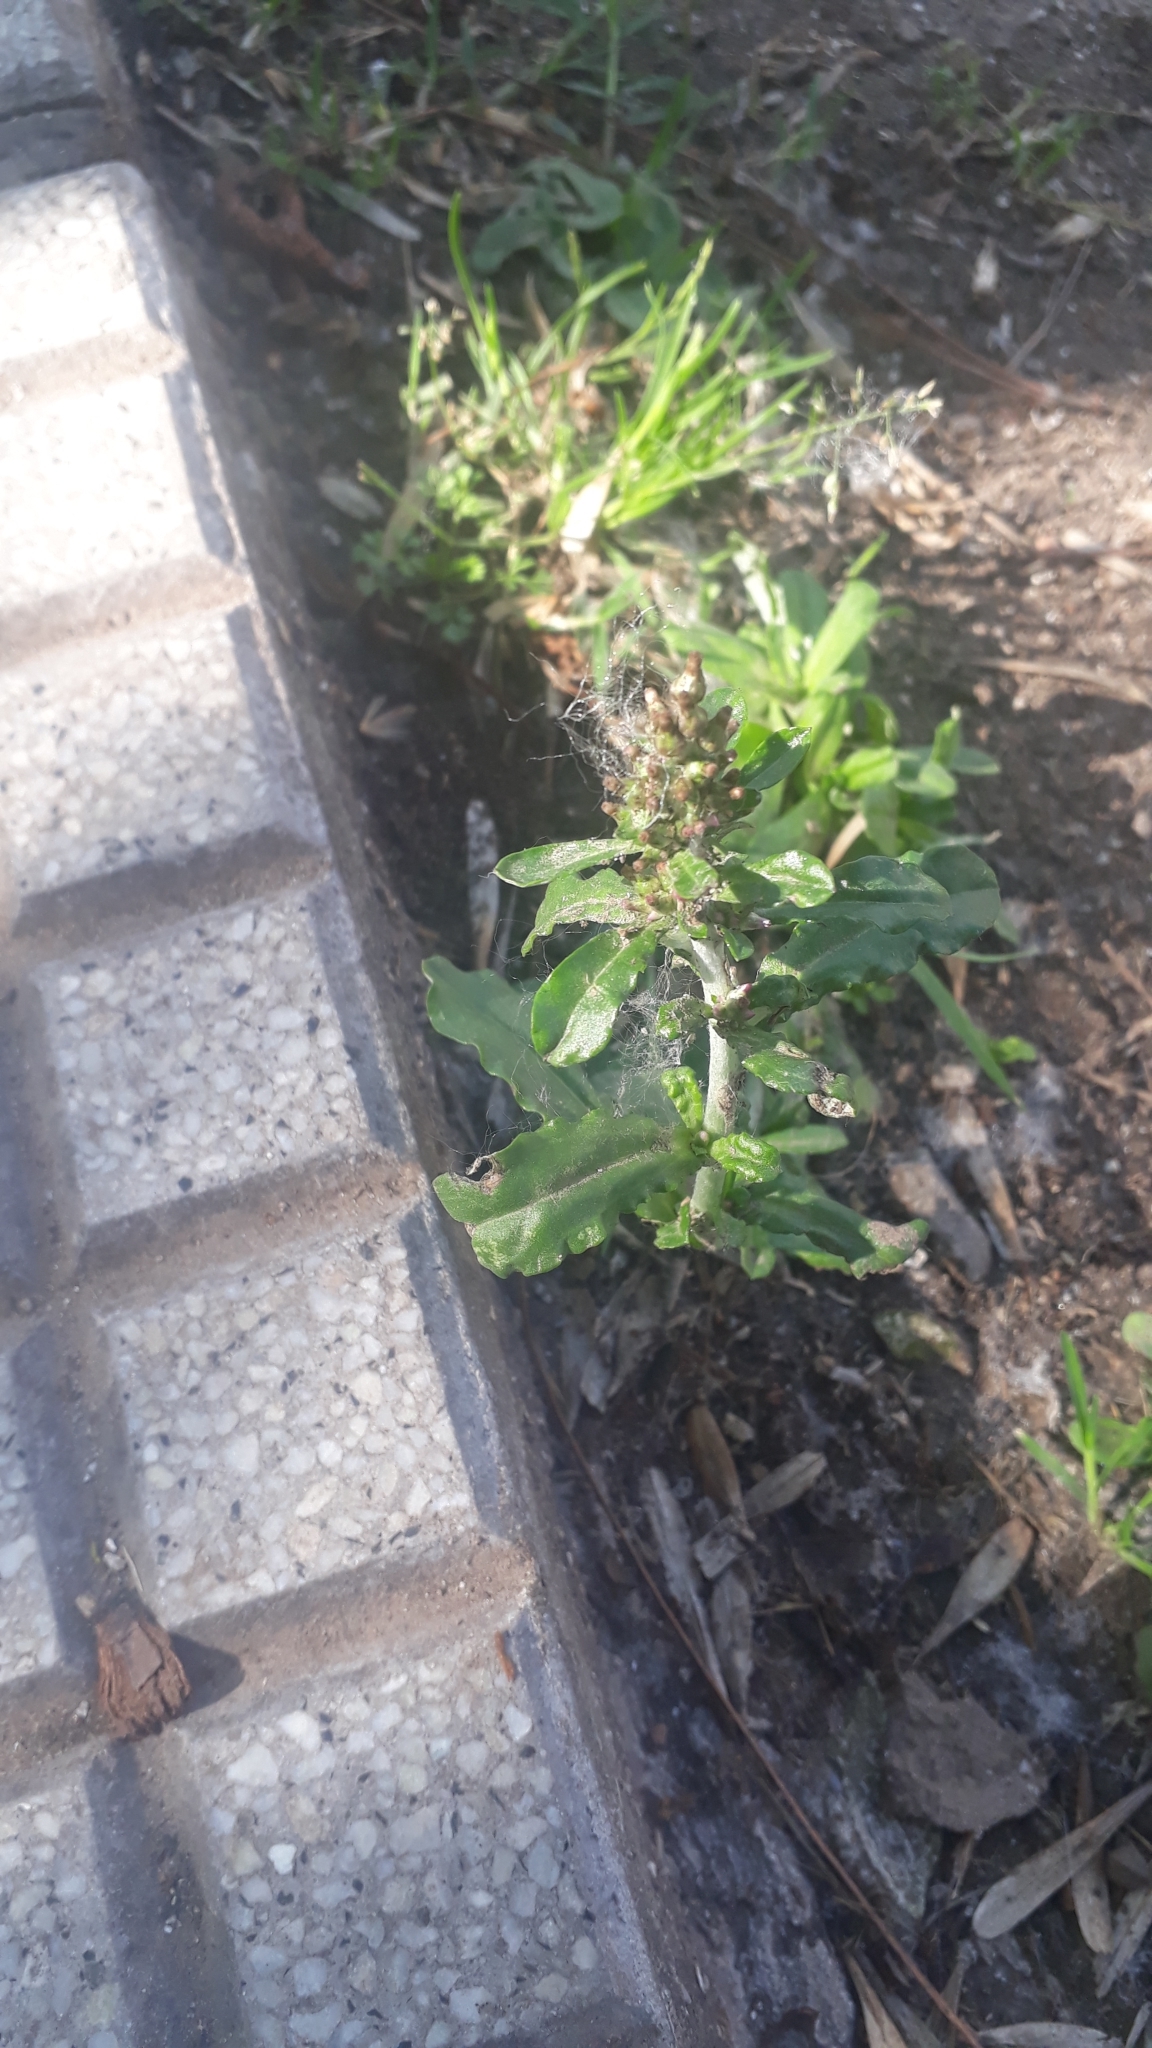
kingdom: Plantae
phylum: Tracheophyta
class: Magnoliopsida
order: Asterales
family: Asteraceae
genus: Gamochaeta
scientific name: Gamochaeta americana
